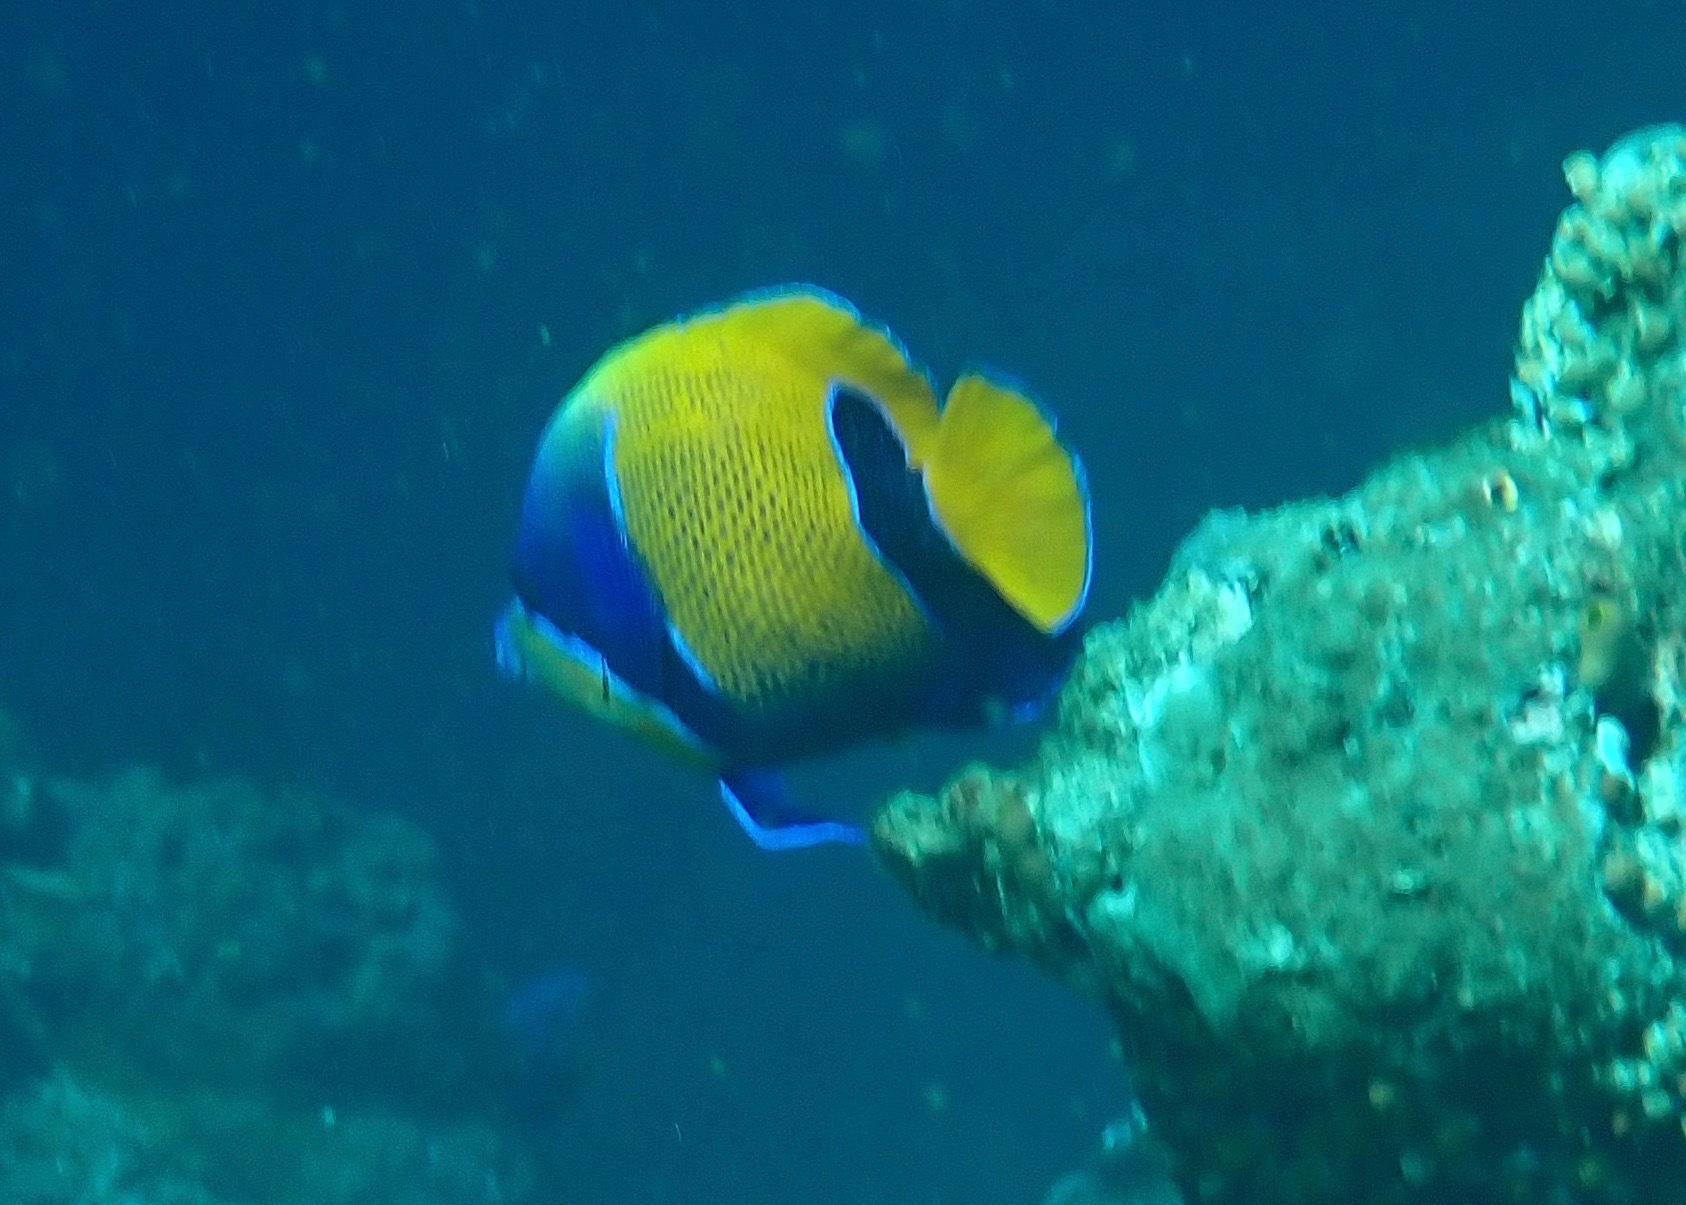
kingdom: Animalia
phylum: Chordata
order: Perciformes
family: Pomacanthidae
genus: Pomacanthus
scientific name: Pomacanthus navarchus
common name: Blue-girdled angelfish
